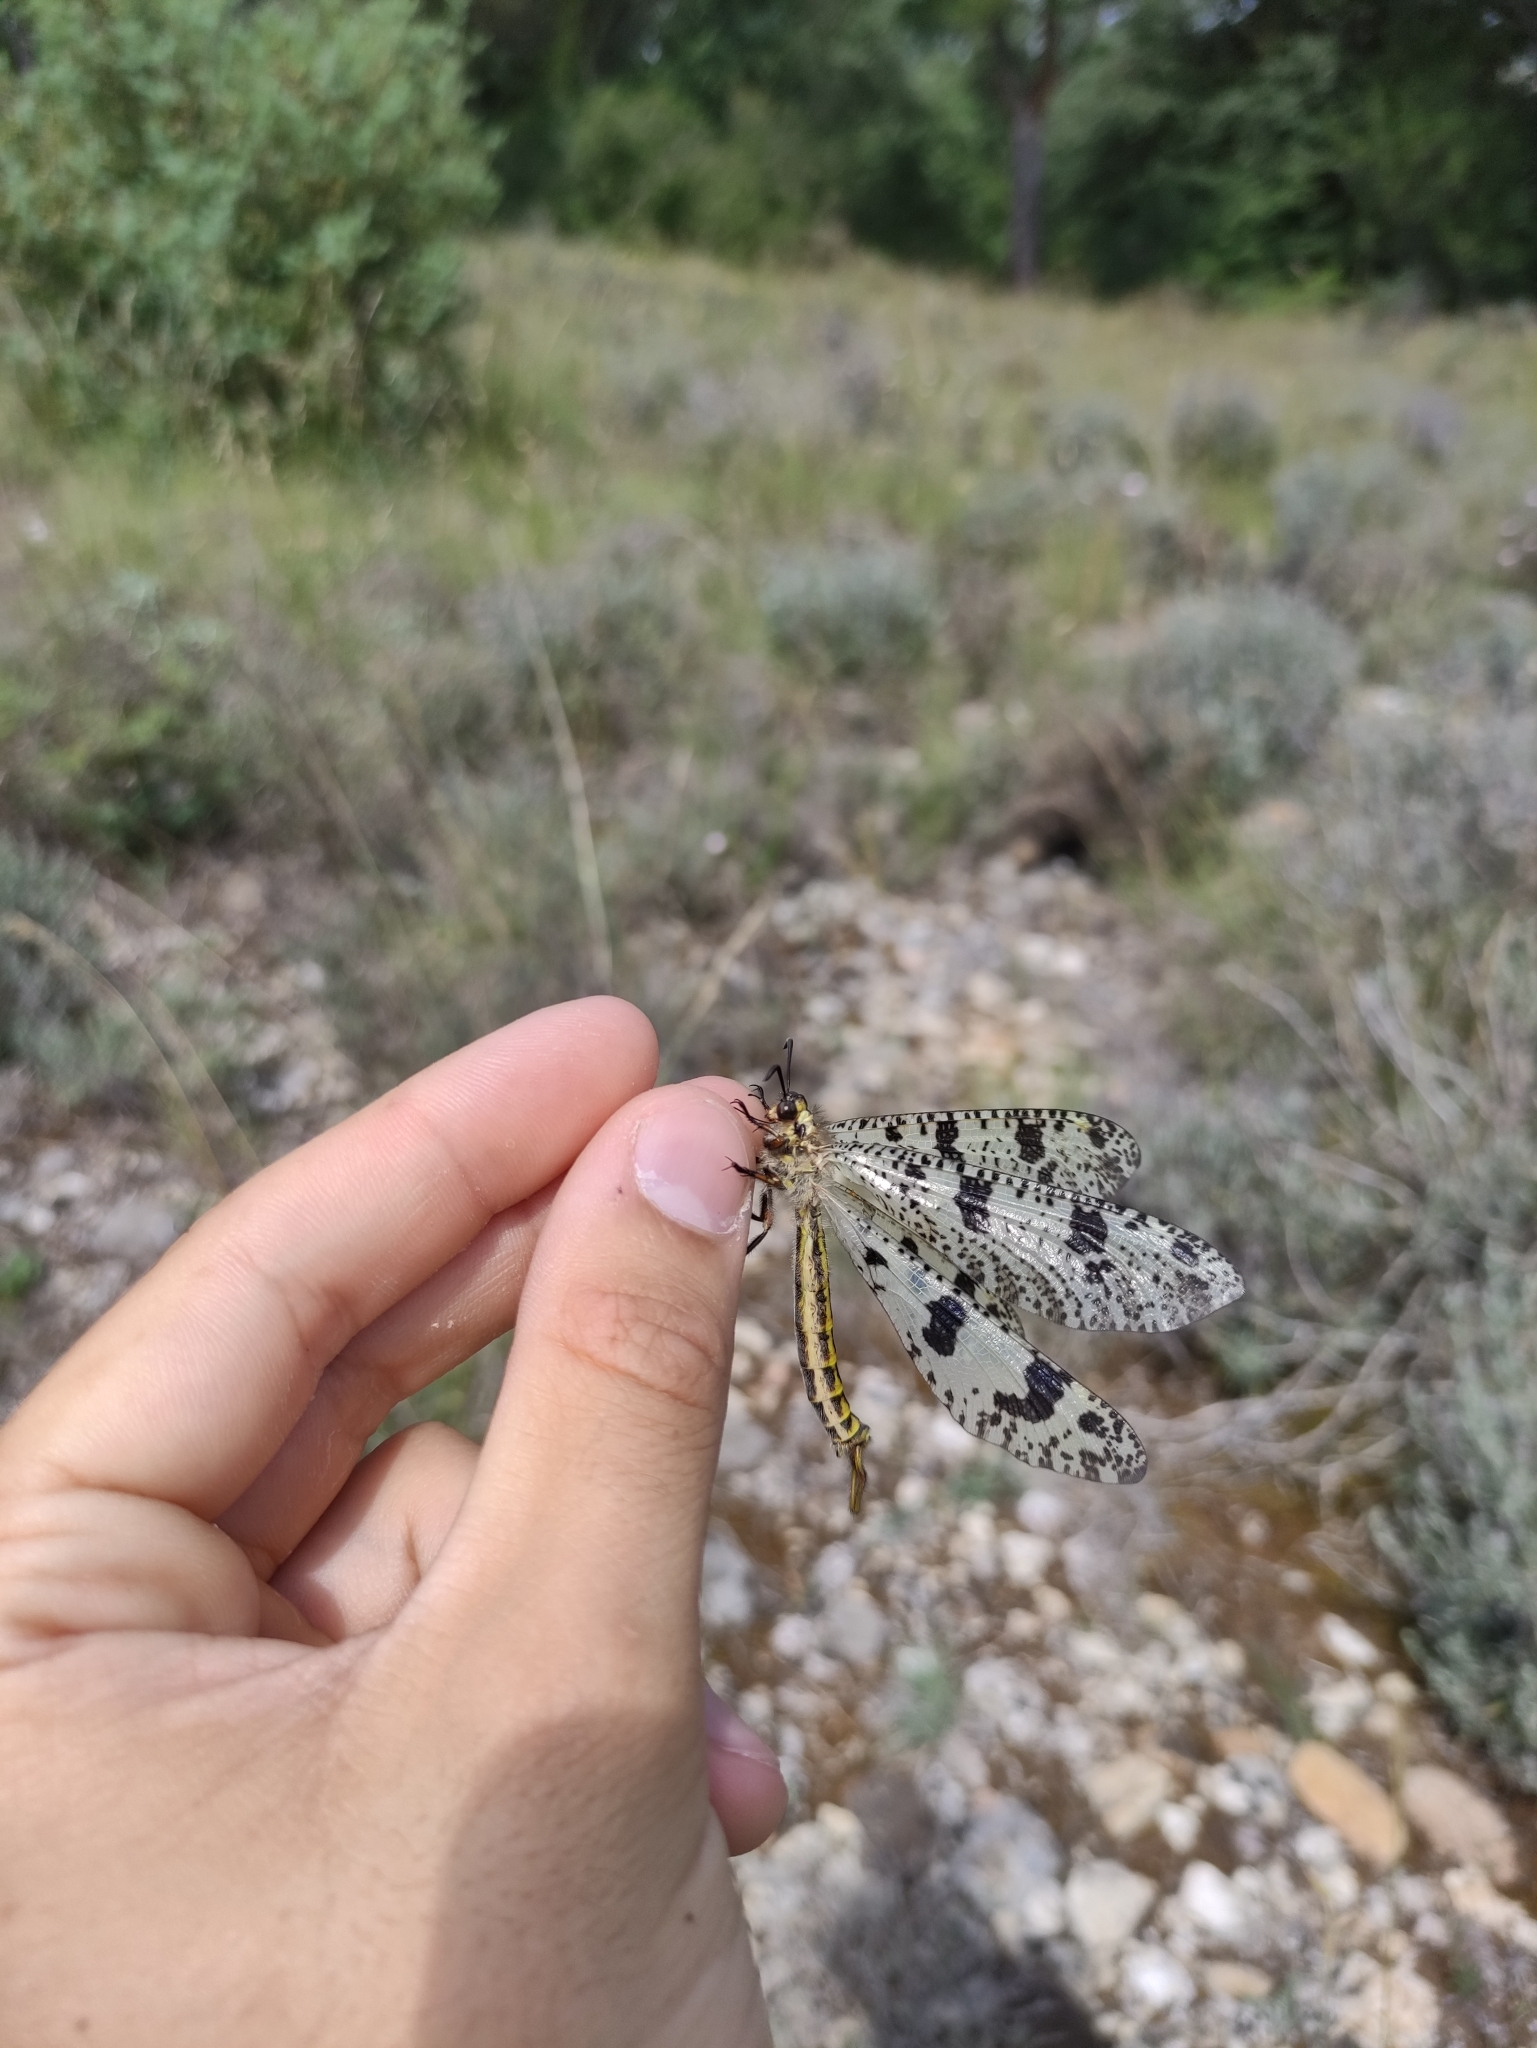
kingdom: Animalia
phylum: Arthropoda
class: Insecta
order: Neuroptera
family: Myrmeleontidae
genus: Palpares
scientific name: Palpares libelluloides
